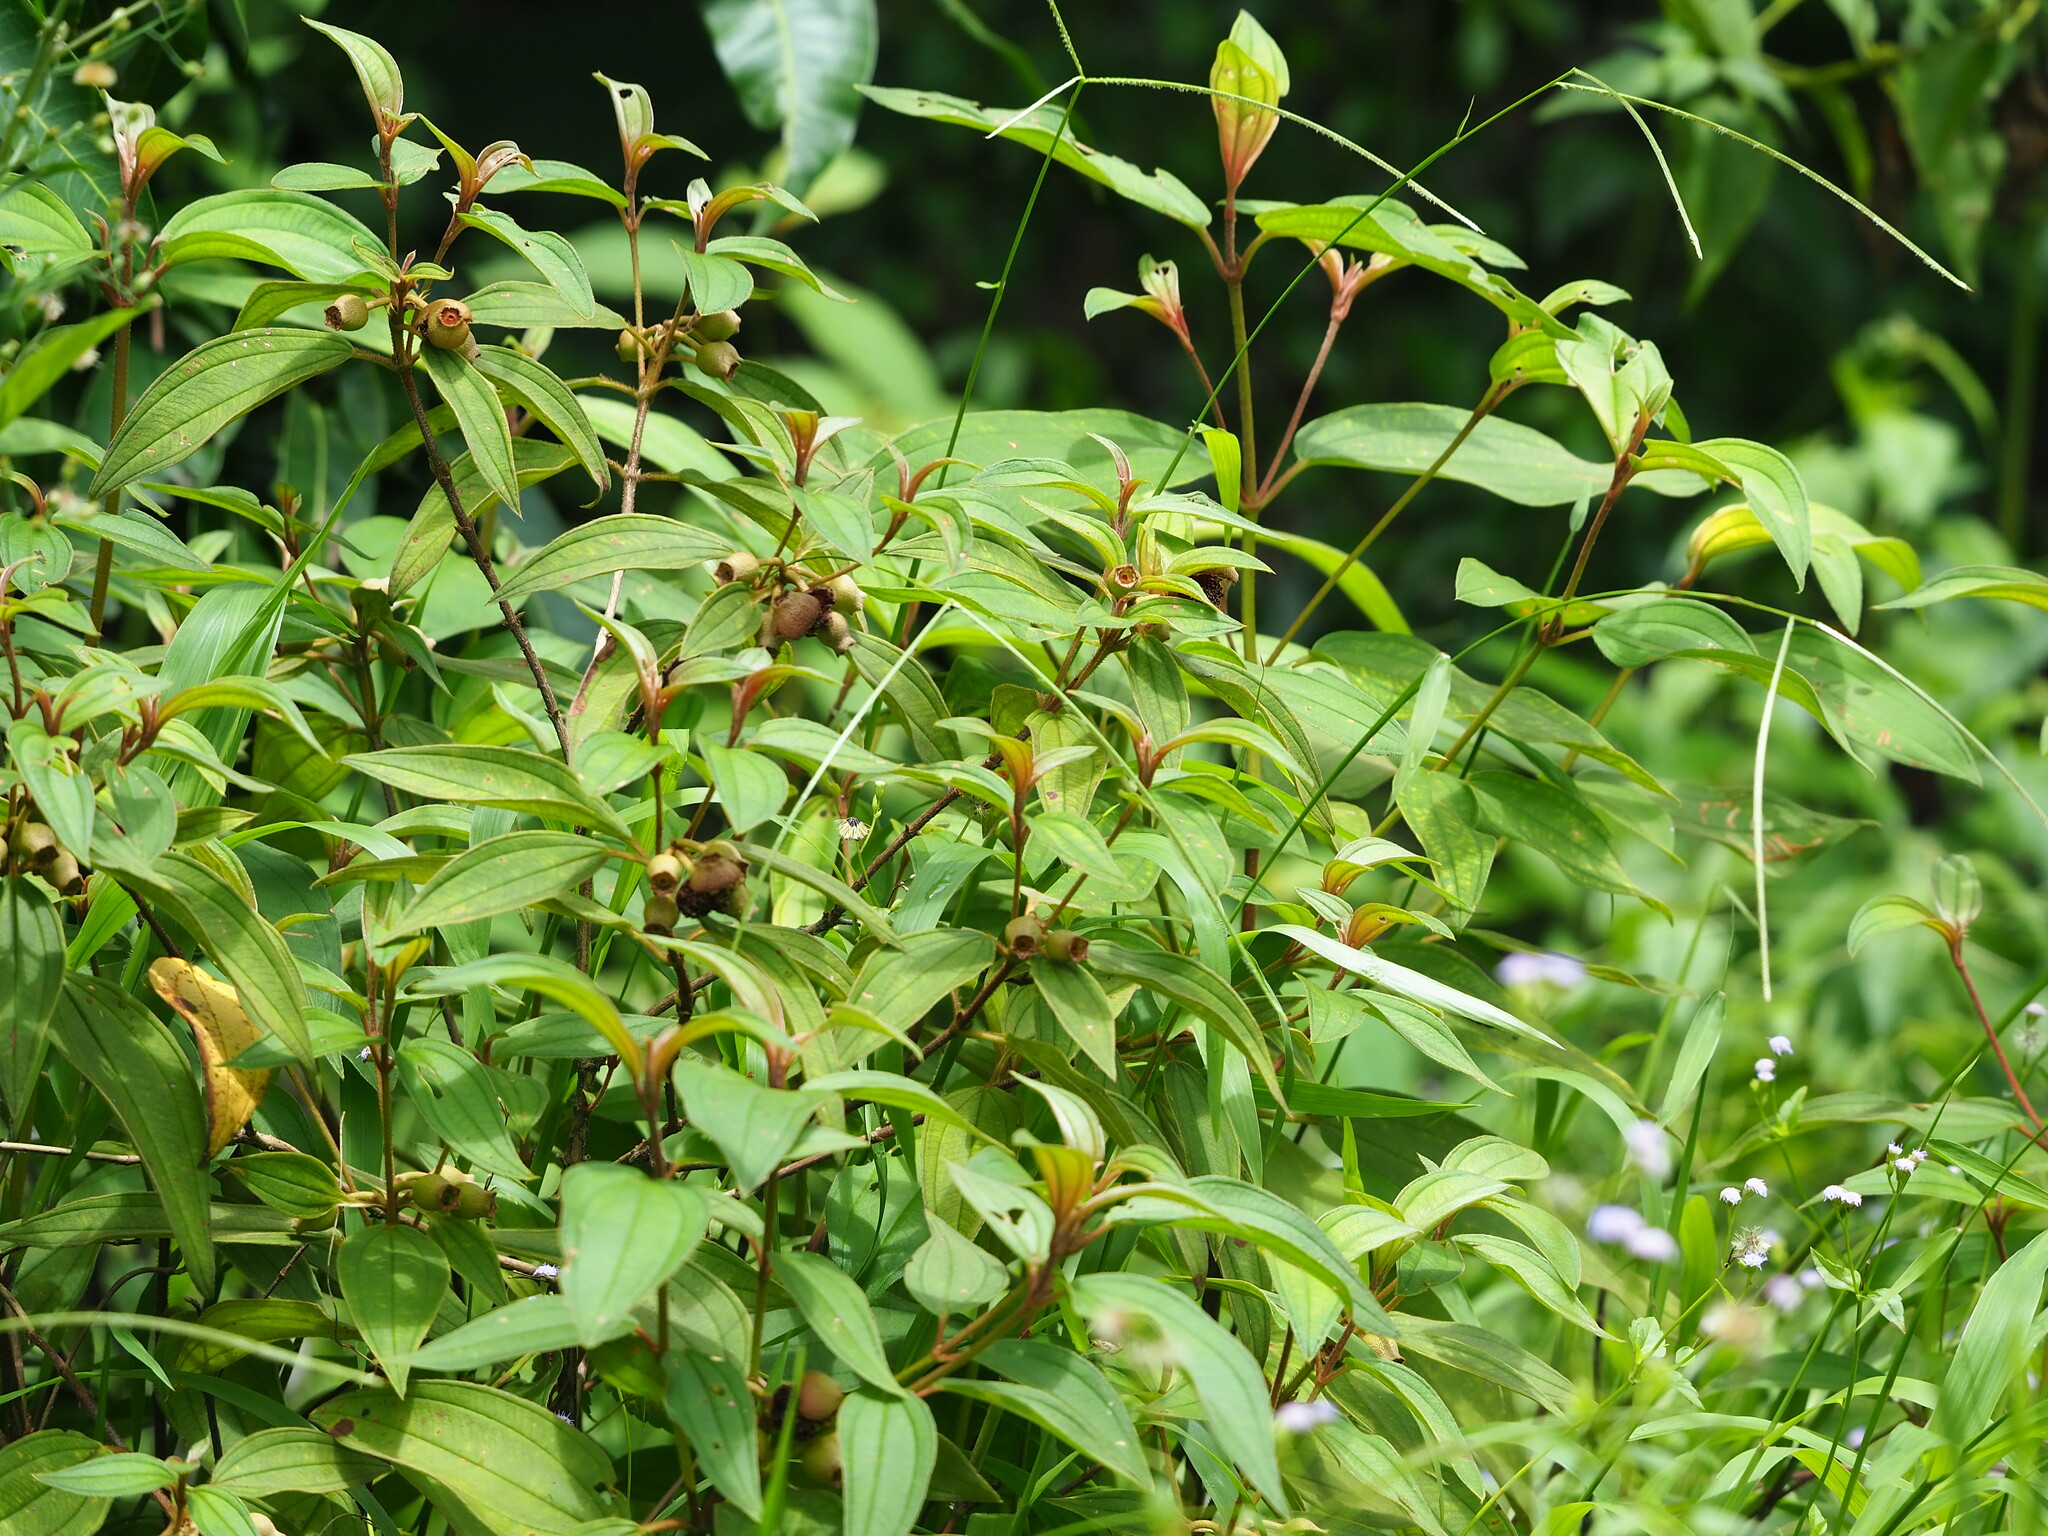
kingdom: Plantae
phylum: Tracheophyta
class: Magnoliopsida
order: Myrtales
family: Melastomataceae
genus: Melastoma
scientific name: Melastoma malabathricum
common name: Indian-rhododendron
